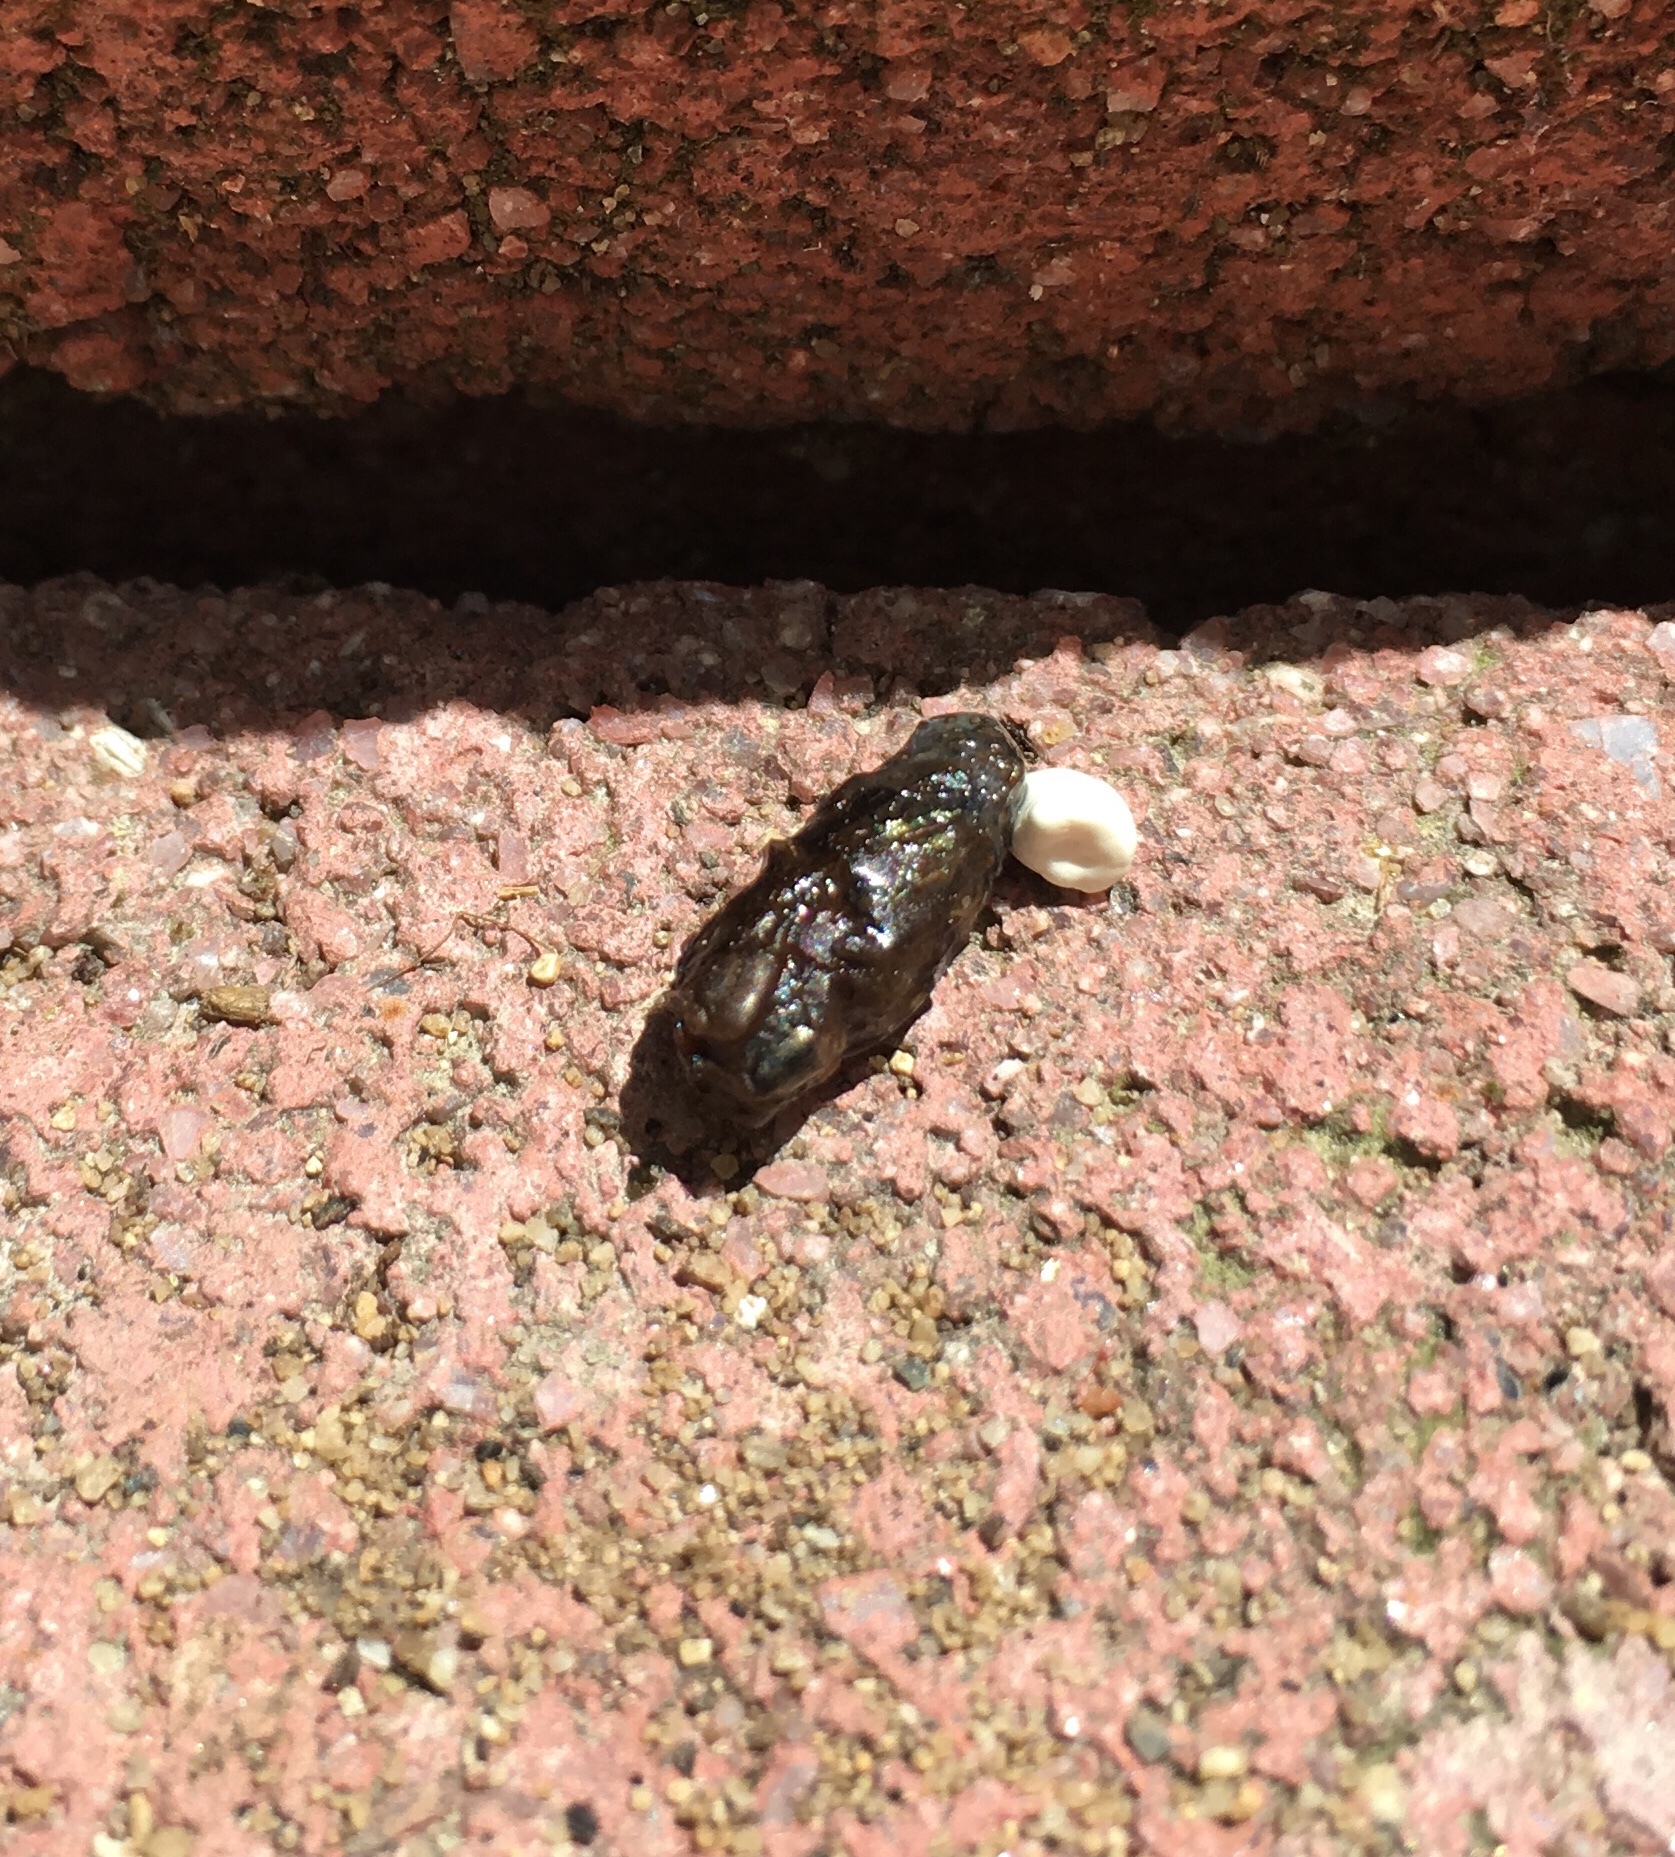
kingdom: Animalia
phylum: Chordata
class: Squamata
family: Phrynosomatidae
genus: Sceloporus
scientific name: Sceloporus occidentalis
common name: Western fence lizard
